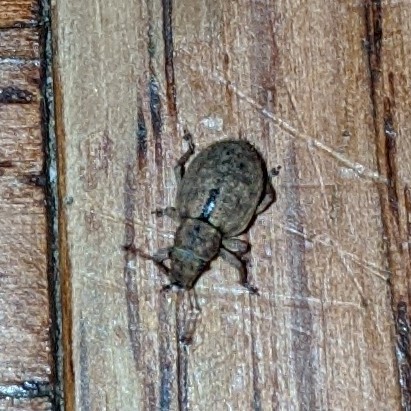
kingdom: Animalia
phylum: Arthropoda
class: Insecta
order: Coleoptera
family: Curculionidae
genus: Strophosoma
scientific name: Strophosoma melanogrammum
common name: Weevil
